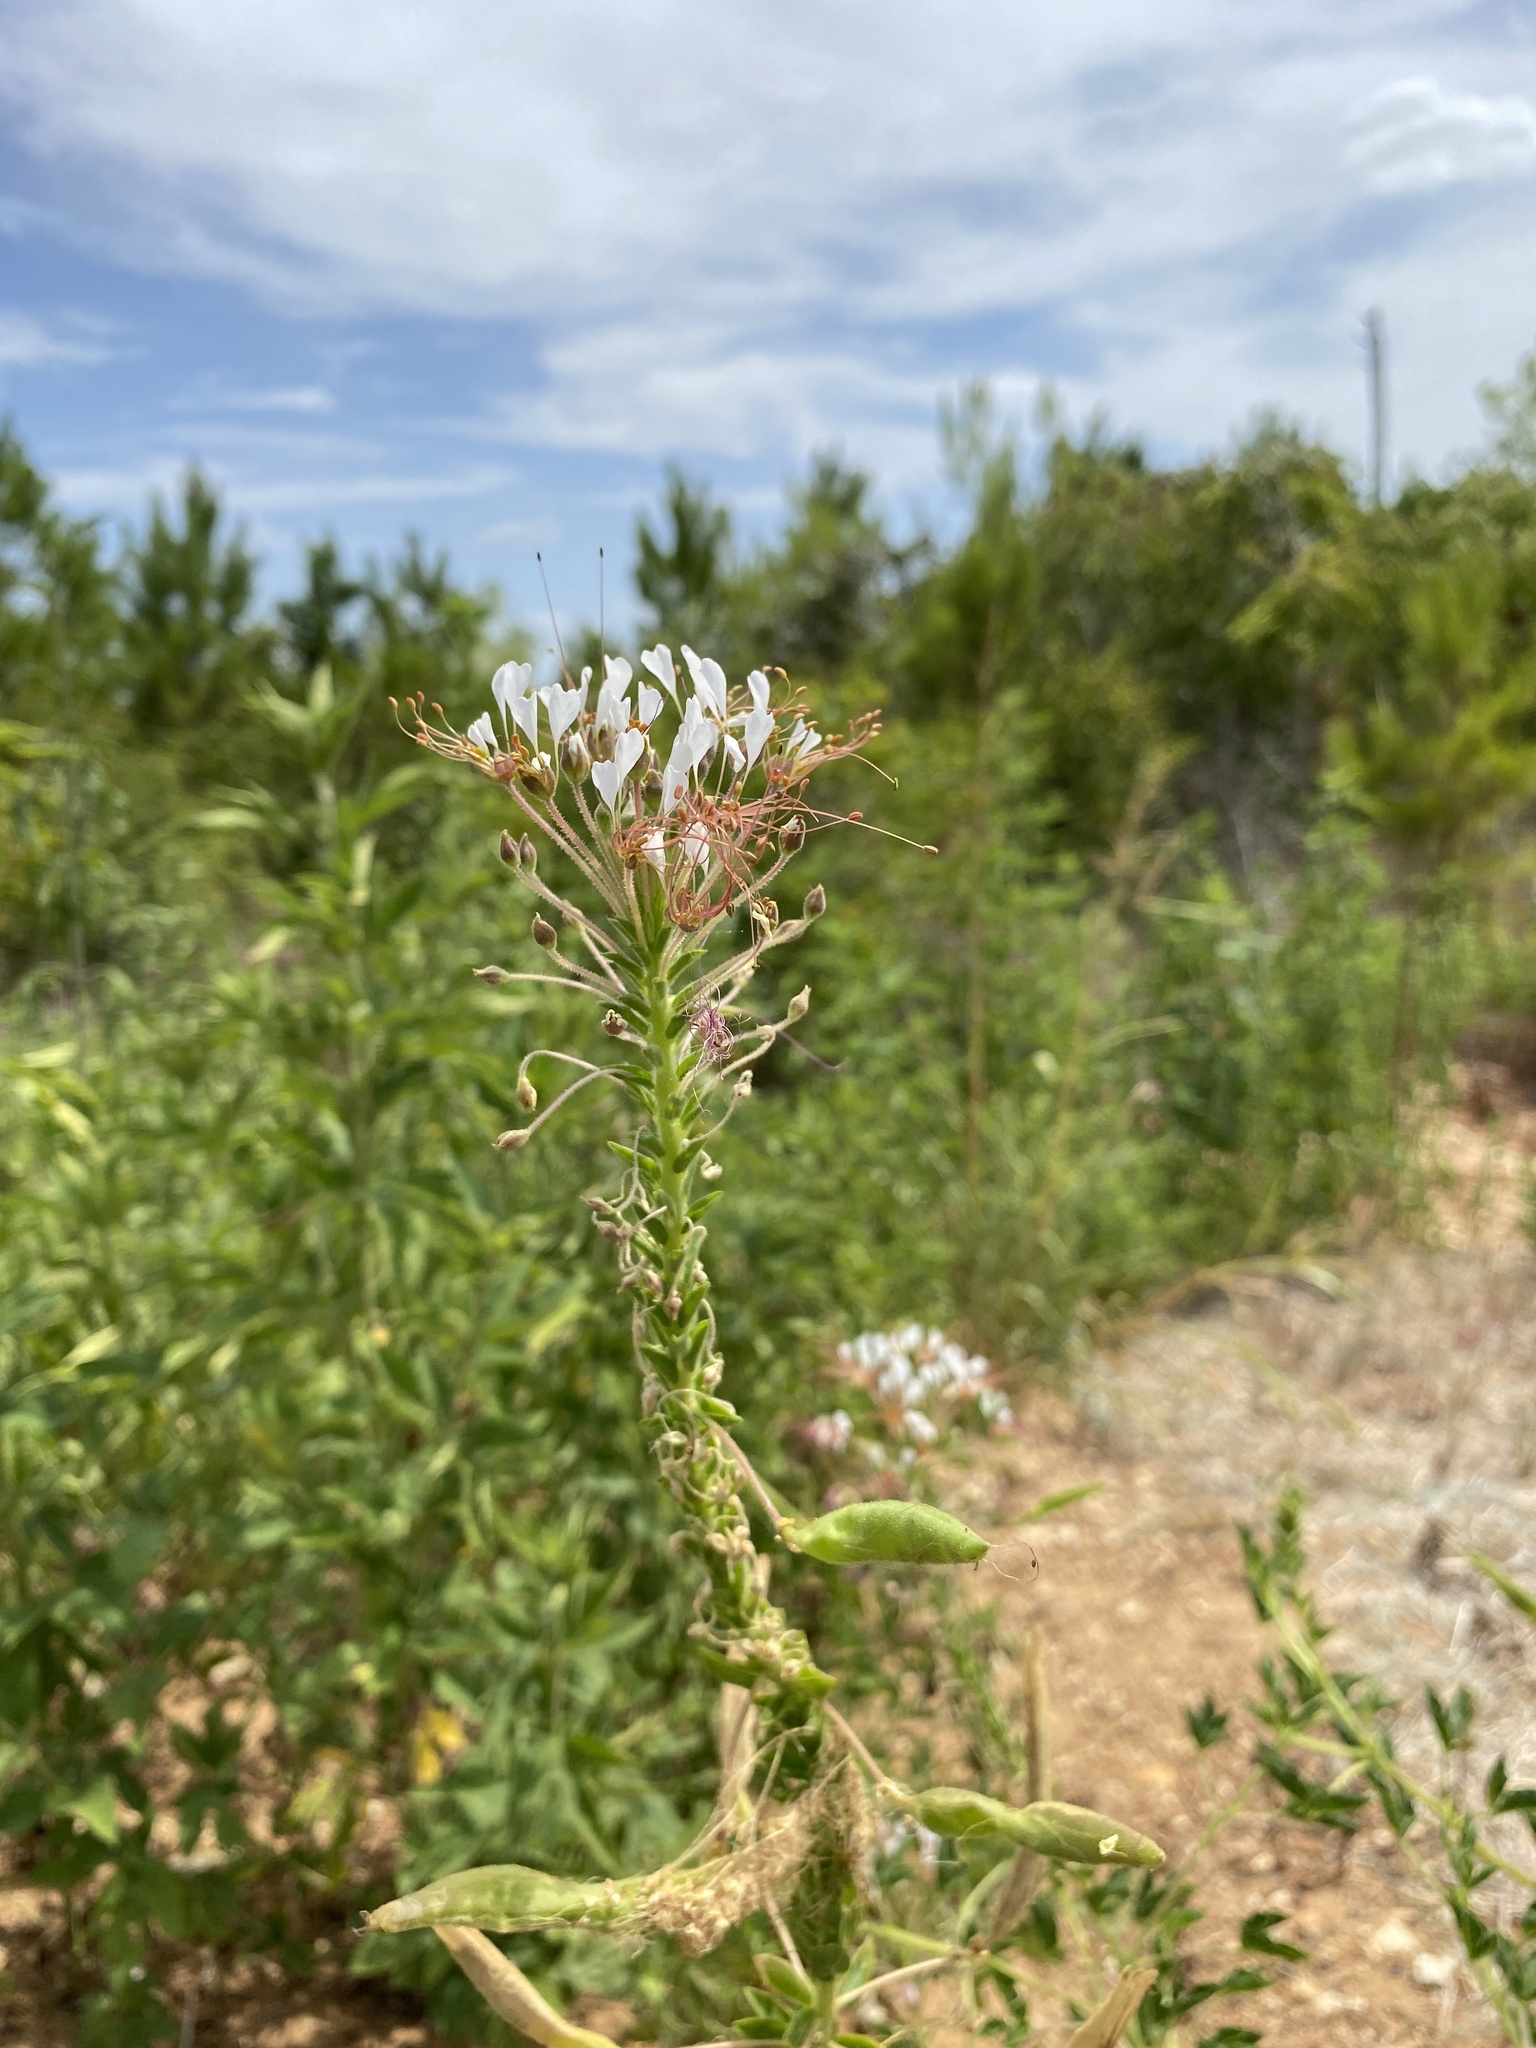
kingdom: Plantae
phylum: Tracheophyta
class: Magnoliopsida
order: Brassicales
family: Cleomaceae
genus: Polanisia
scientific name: Polanisia dodecandra
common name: Clammyweed
